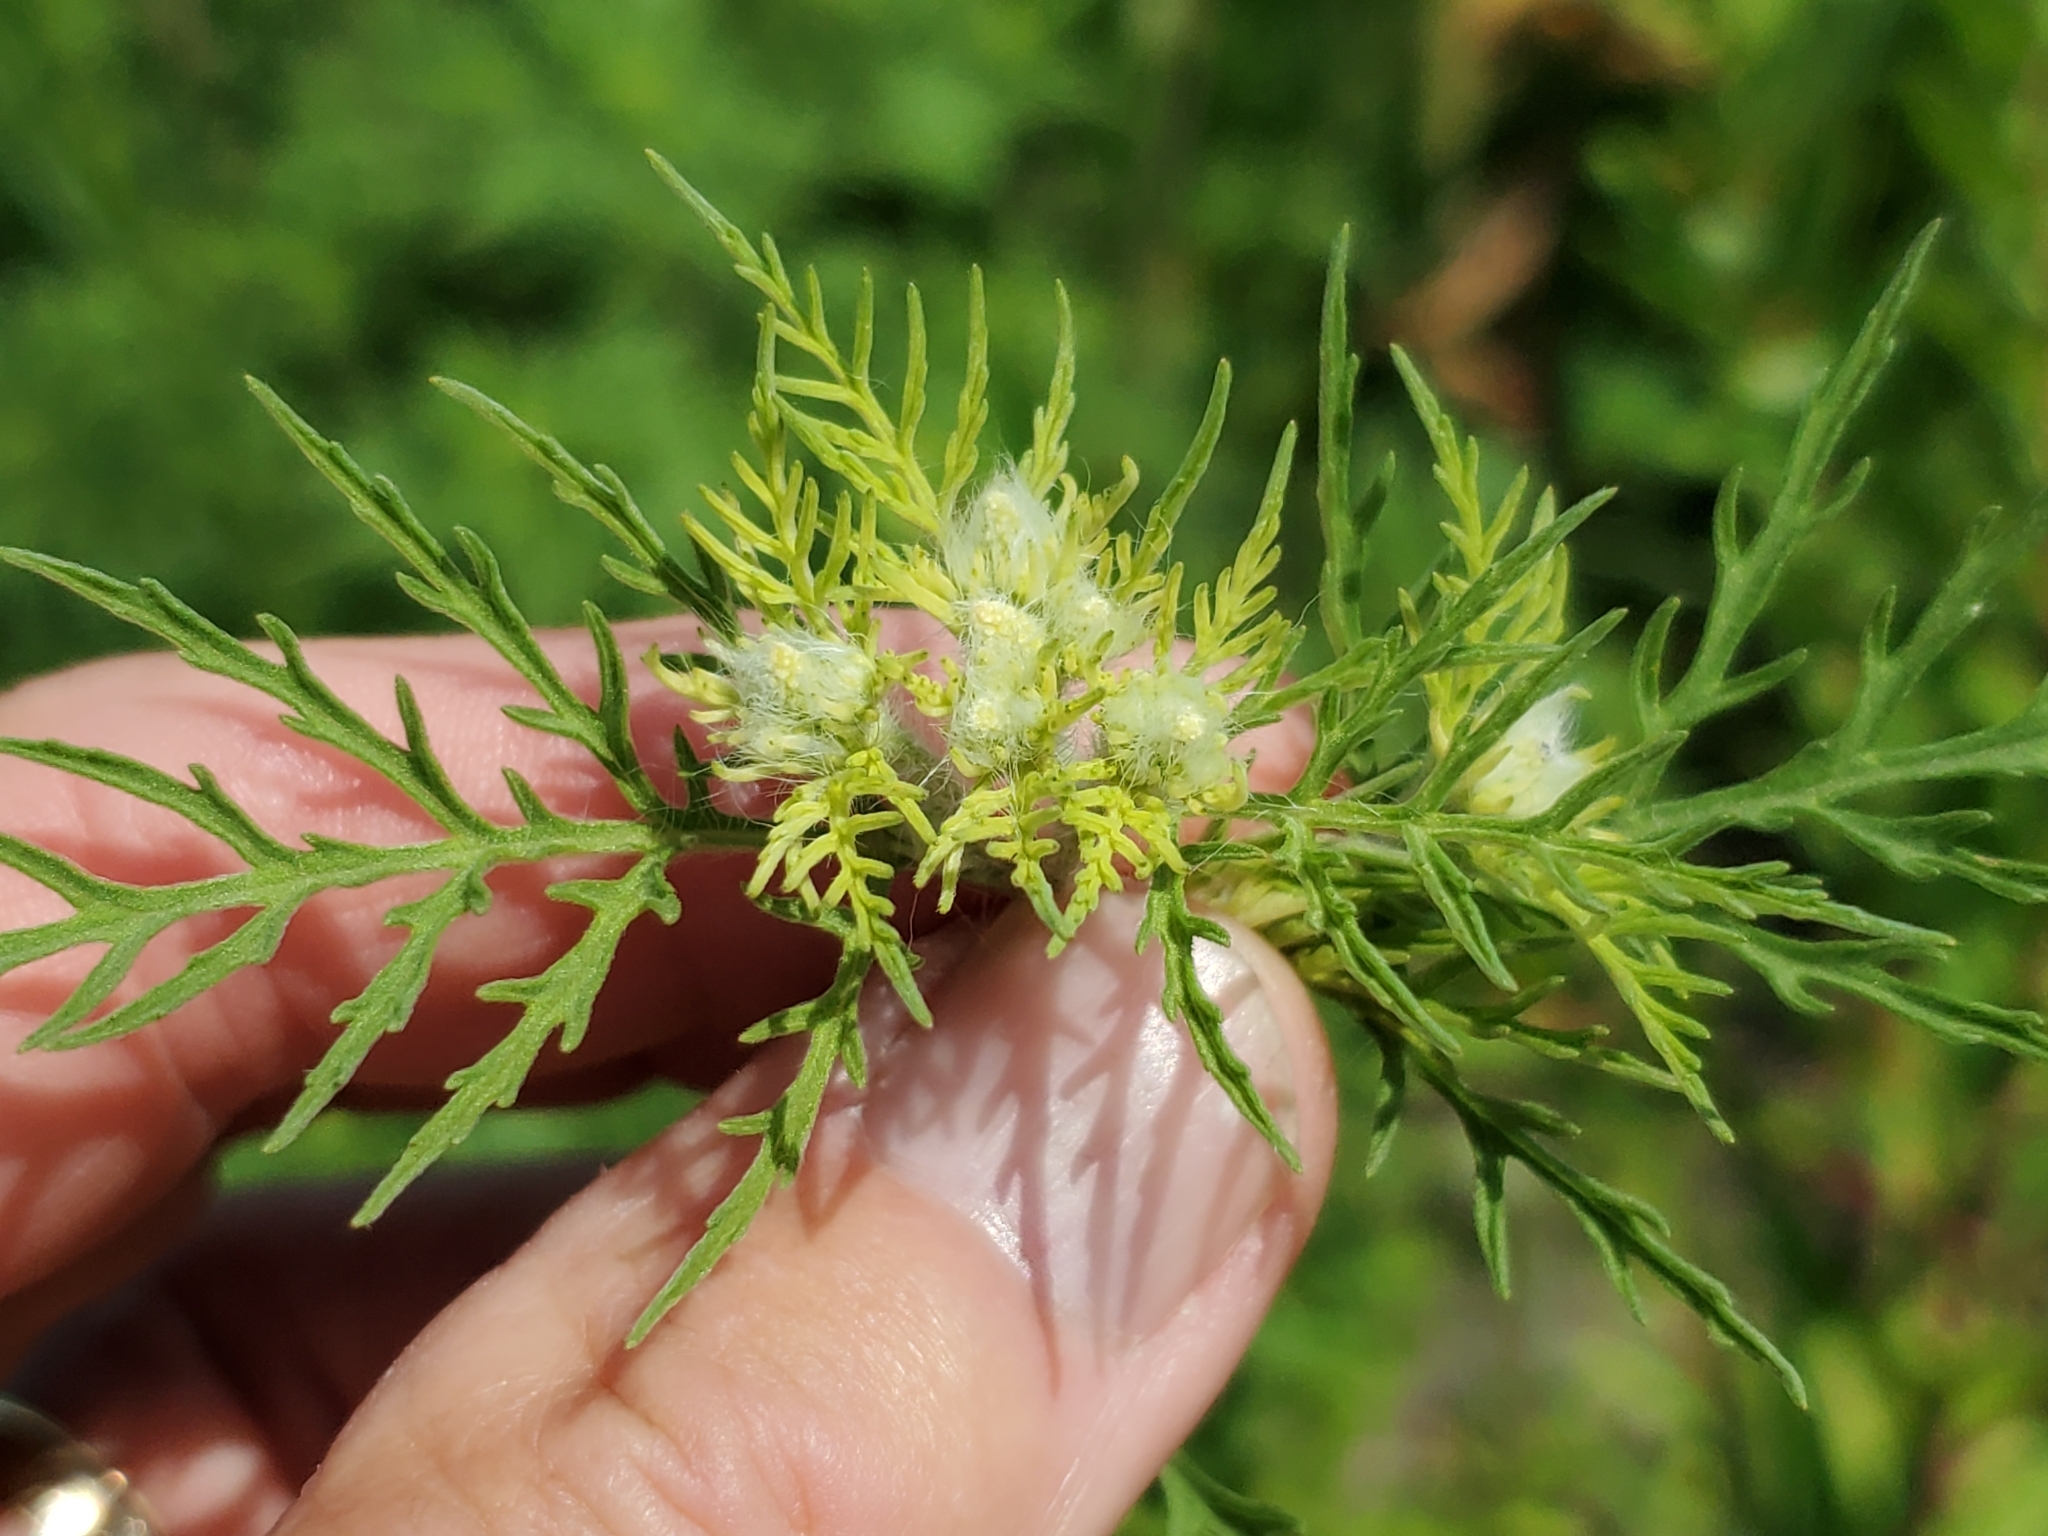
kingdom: Plantae
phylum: Tracheophyta
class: Magnoliopsida
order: Asterales
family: Asteraceae
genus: Ambrosia
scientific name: Ambrosia artemisiifolia
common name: Annual ragweed
